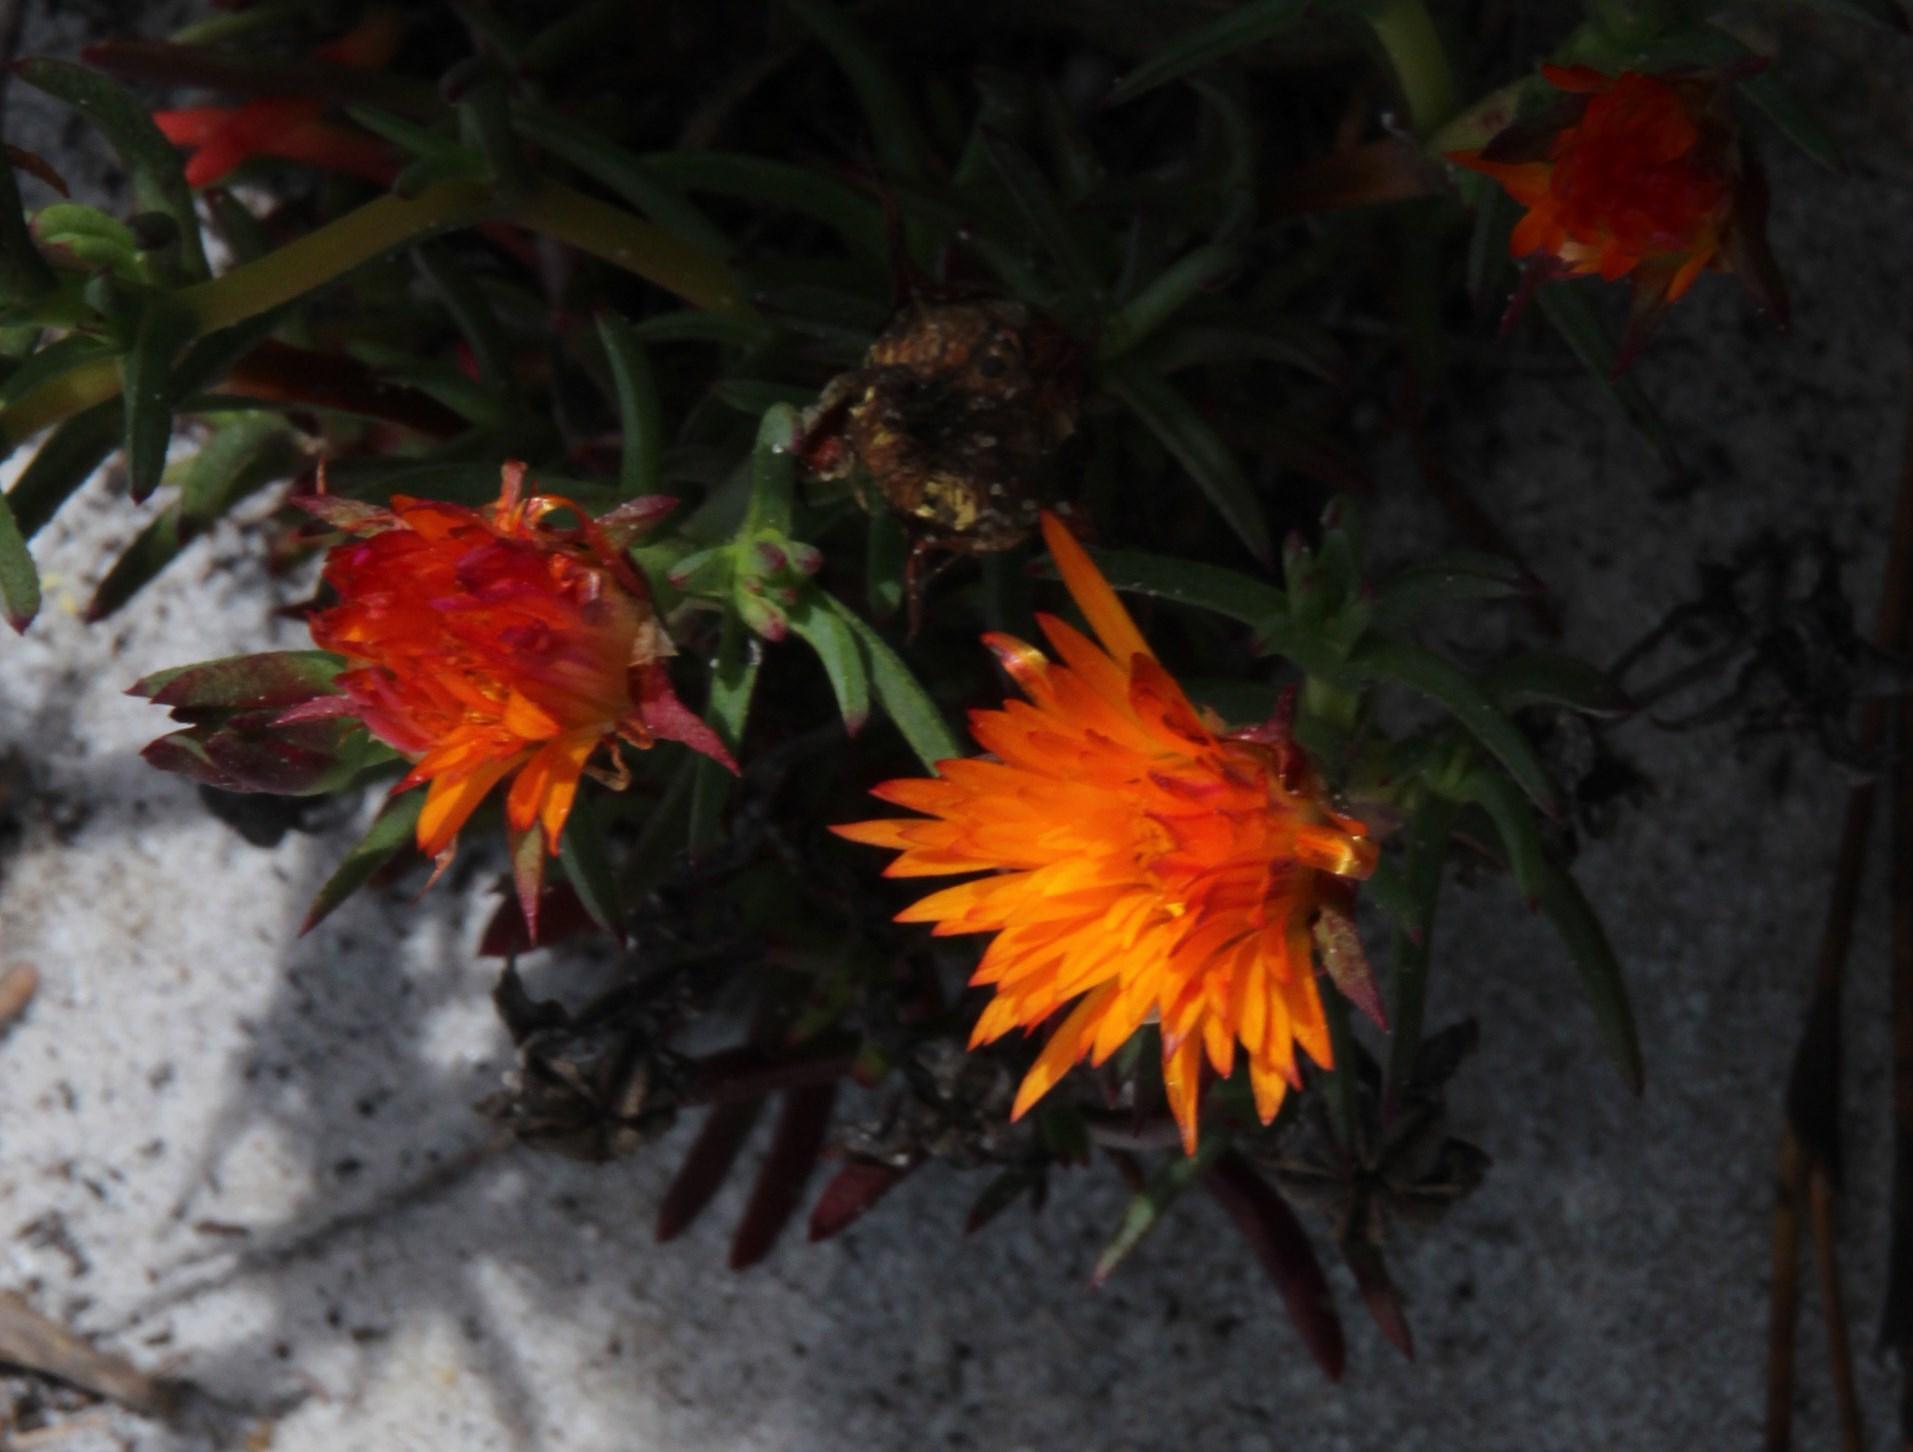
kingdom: Plantae
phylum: Tracheophyta
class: Magnoliopsida
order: Caryophyllales
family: Aizoaceae
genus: Lampranthus
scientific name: Lampranthus bicolor
